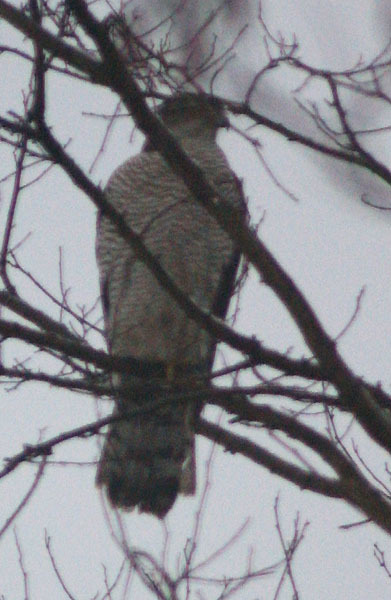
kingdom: Animalia
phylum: Chordata
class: Aves
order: Accipitriformes
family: Accipitridae
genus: Accipiter
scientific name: Accipiter gentilis
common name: Northern goshawk
